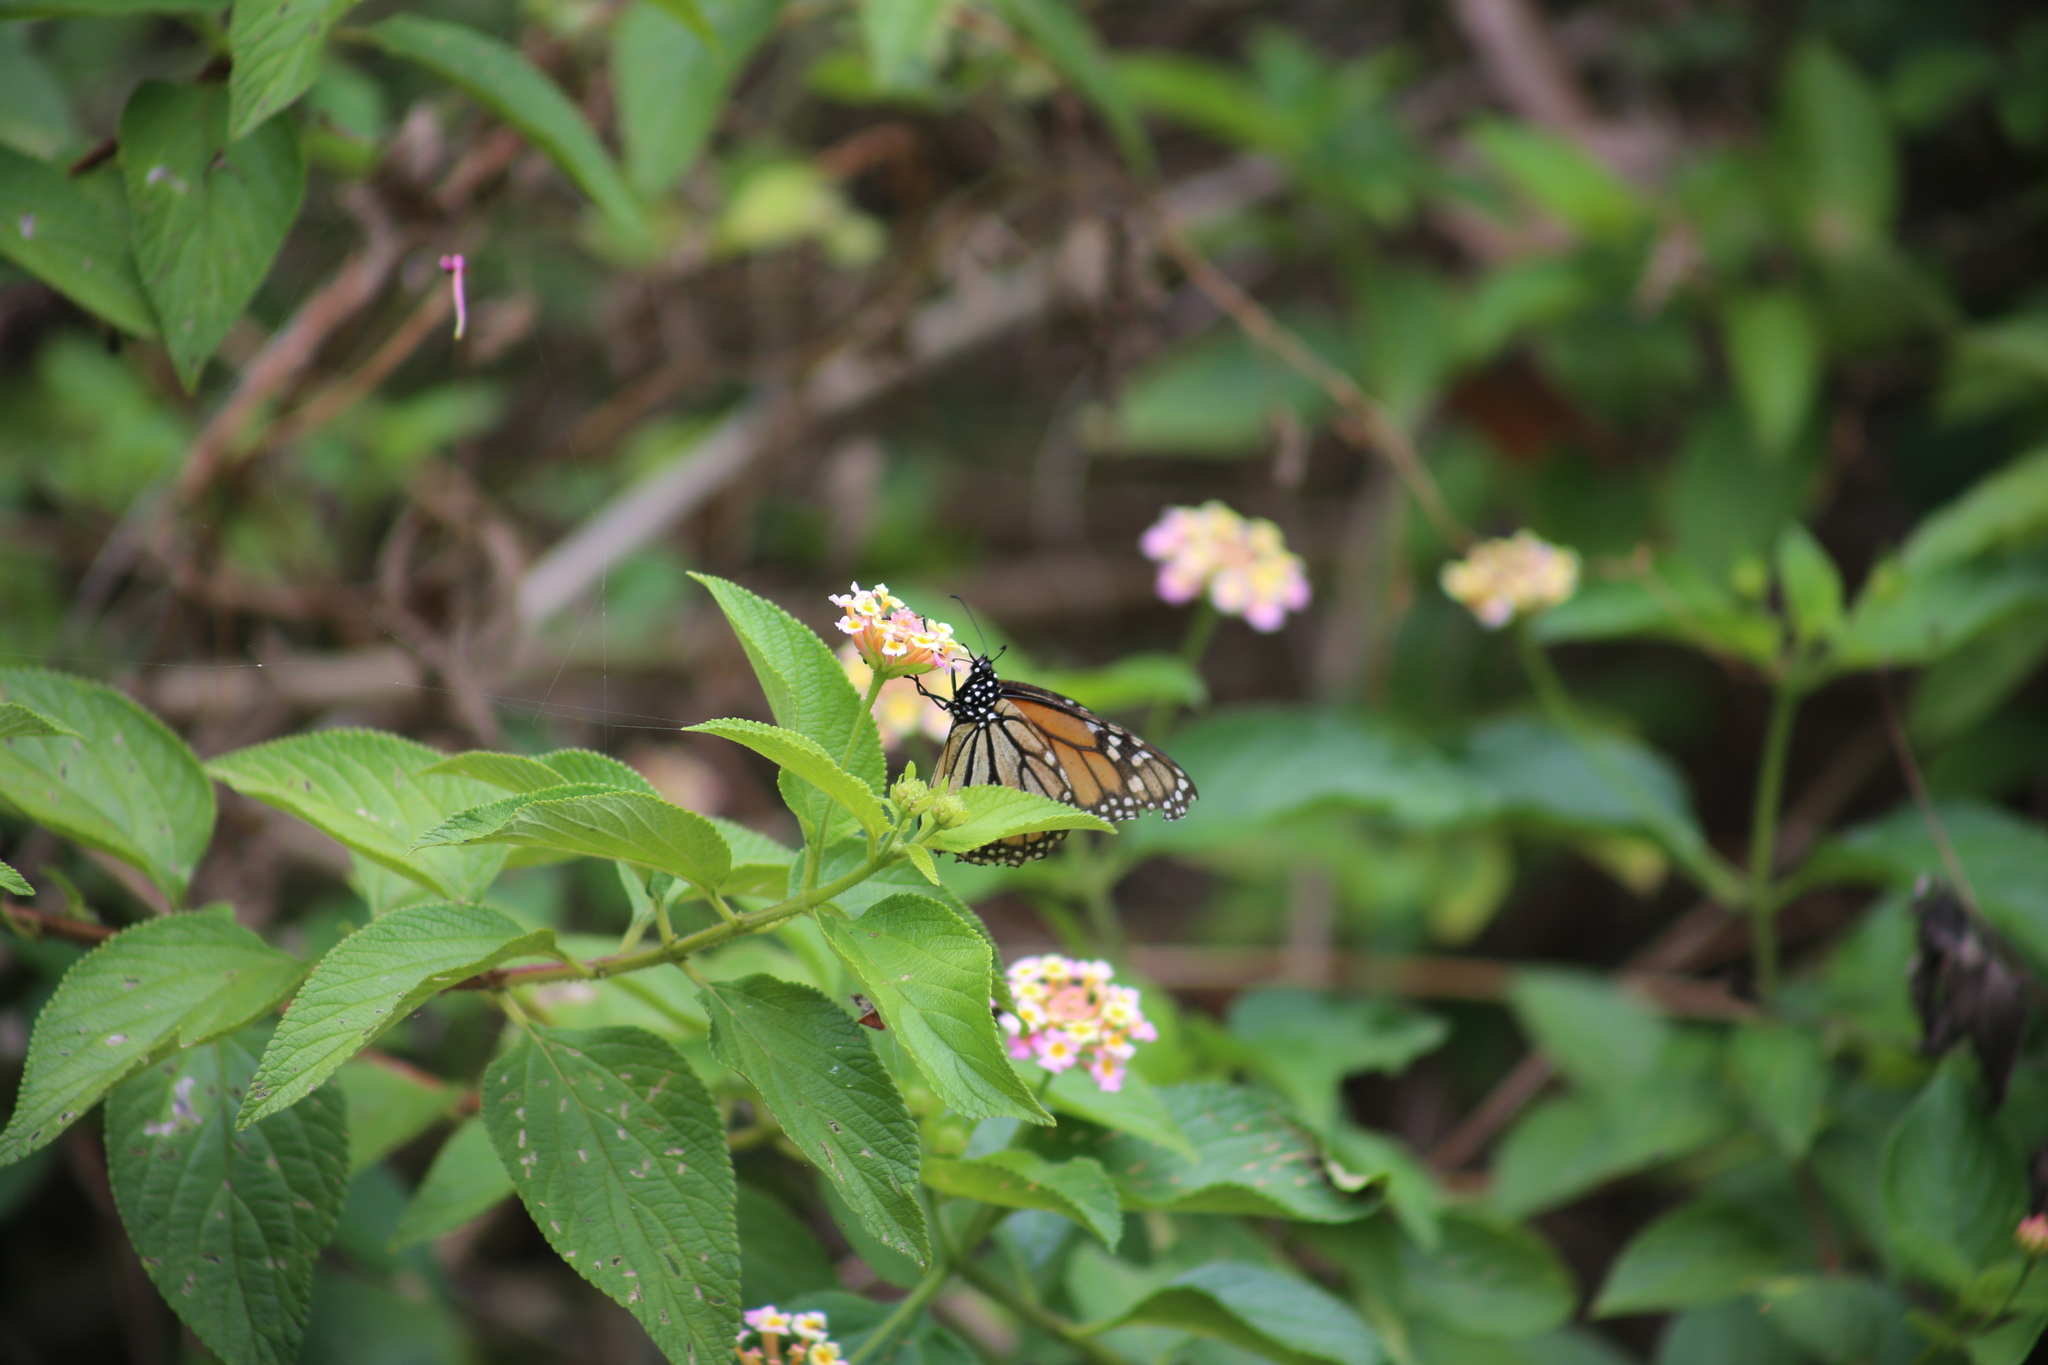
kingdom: Animalia
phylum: Arthropoda
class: Insecta
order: Lepidoptera
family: Nymphalidae
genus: Danaus
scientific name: Danaus plexippus
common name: Monarch
